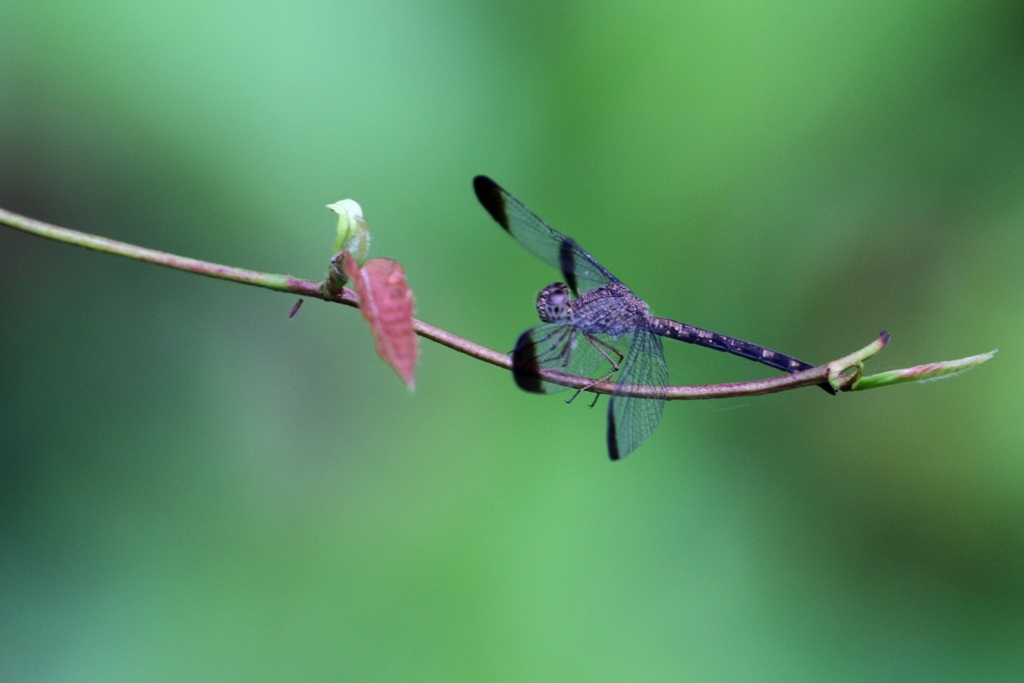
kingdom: Animalia
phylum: Arthropoda
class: Insecta
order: Odonata
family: Libellulidae
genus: Uracis
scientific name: Uracis imbuta
